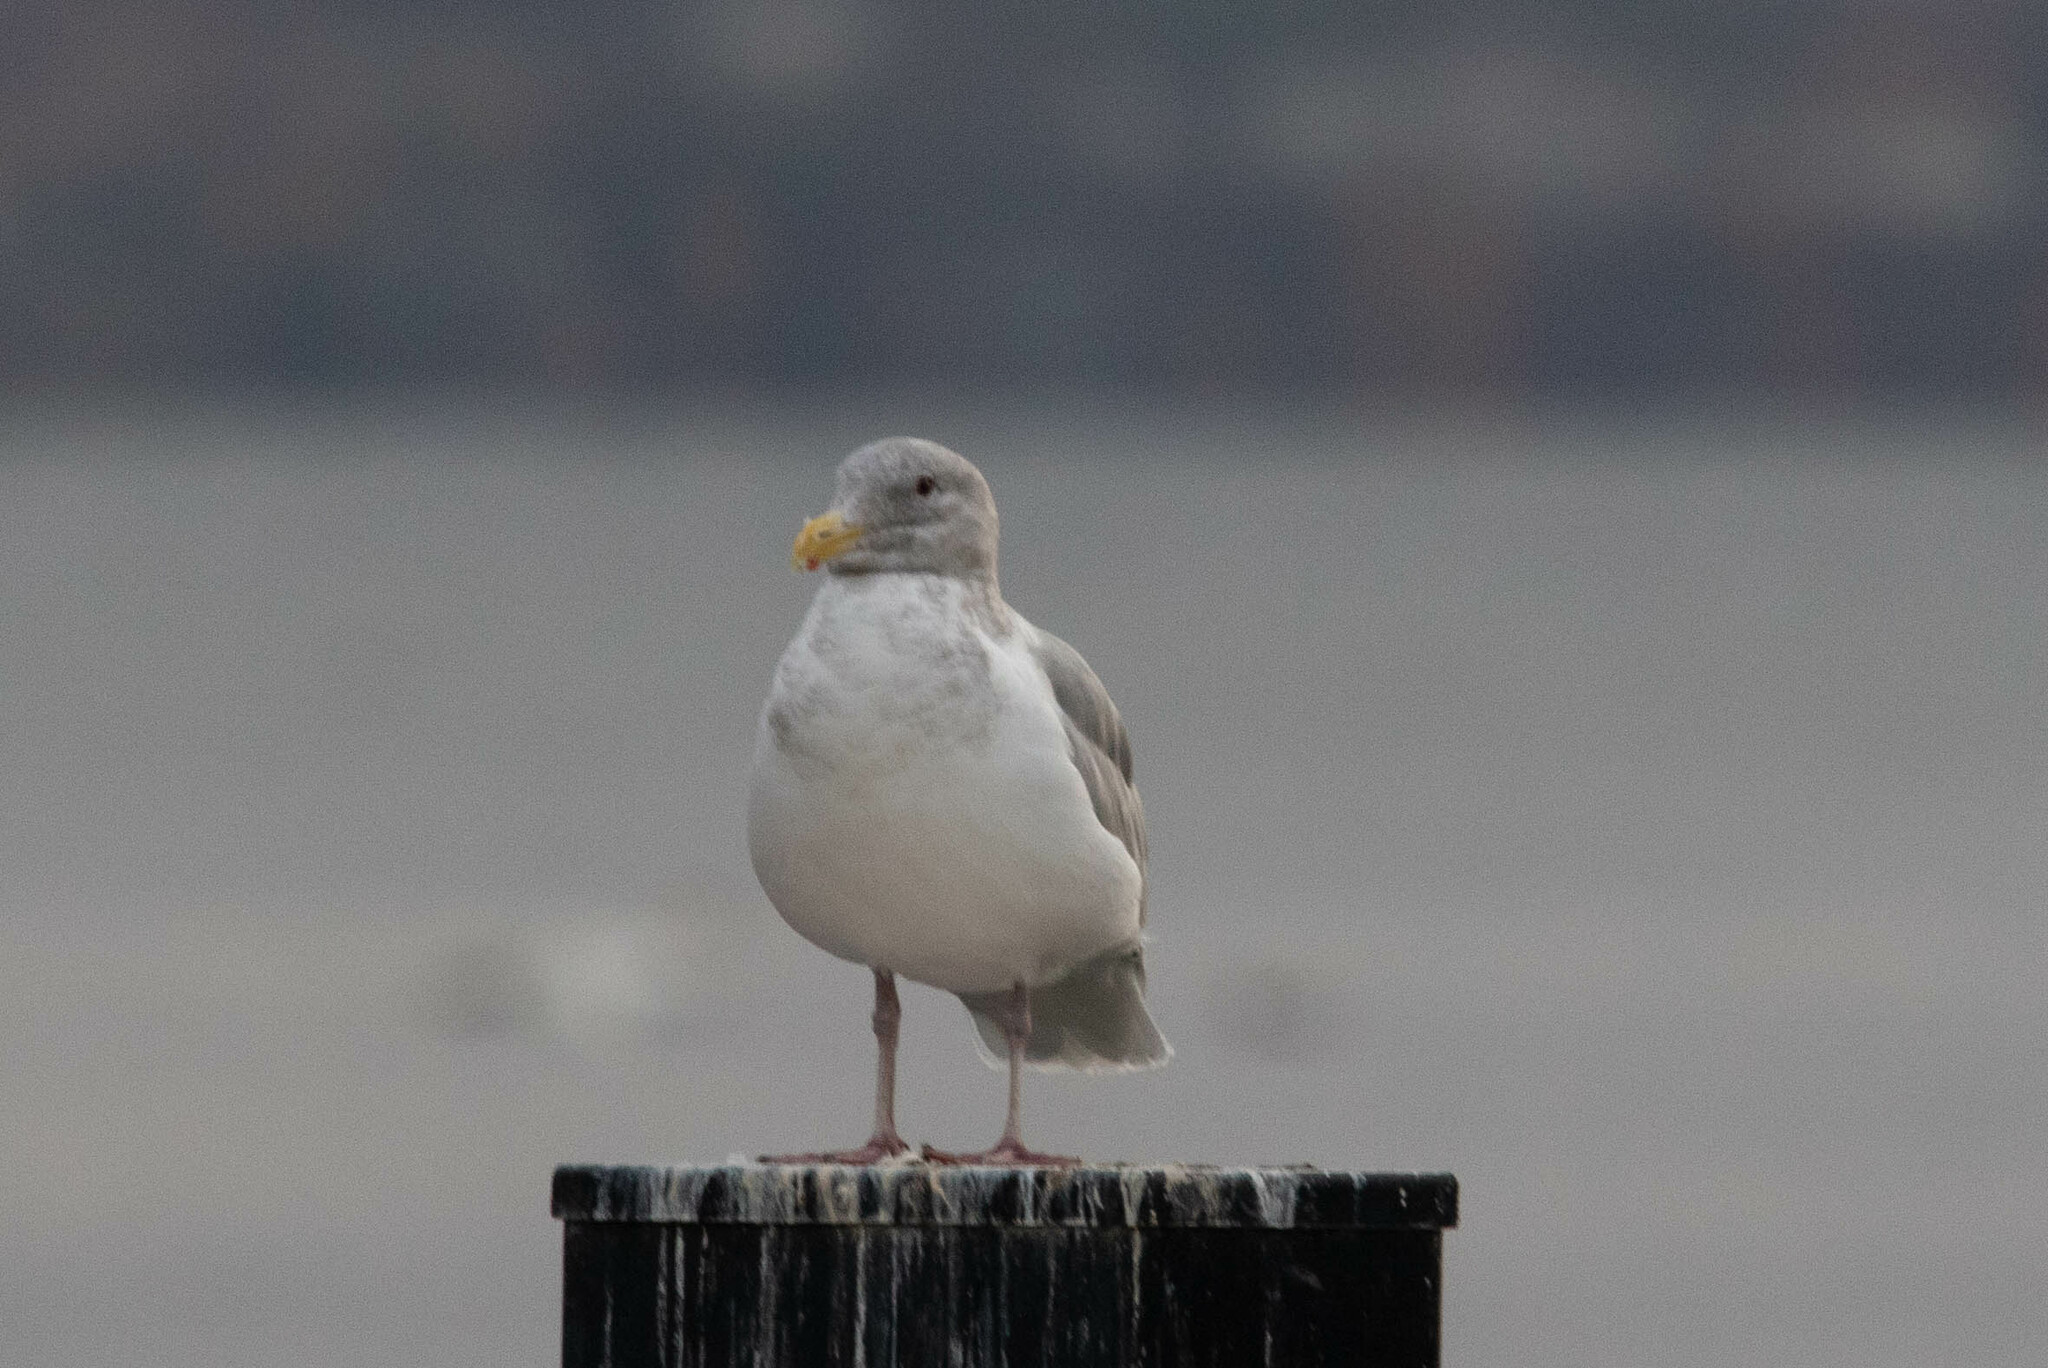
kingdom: Animalia
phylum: Chordata
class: Aves
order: Charadriiformes
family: Laridae
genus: Larus
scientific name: Larus glaucescens
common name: Glaucous-winged gull
